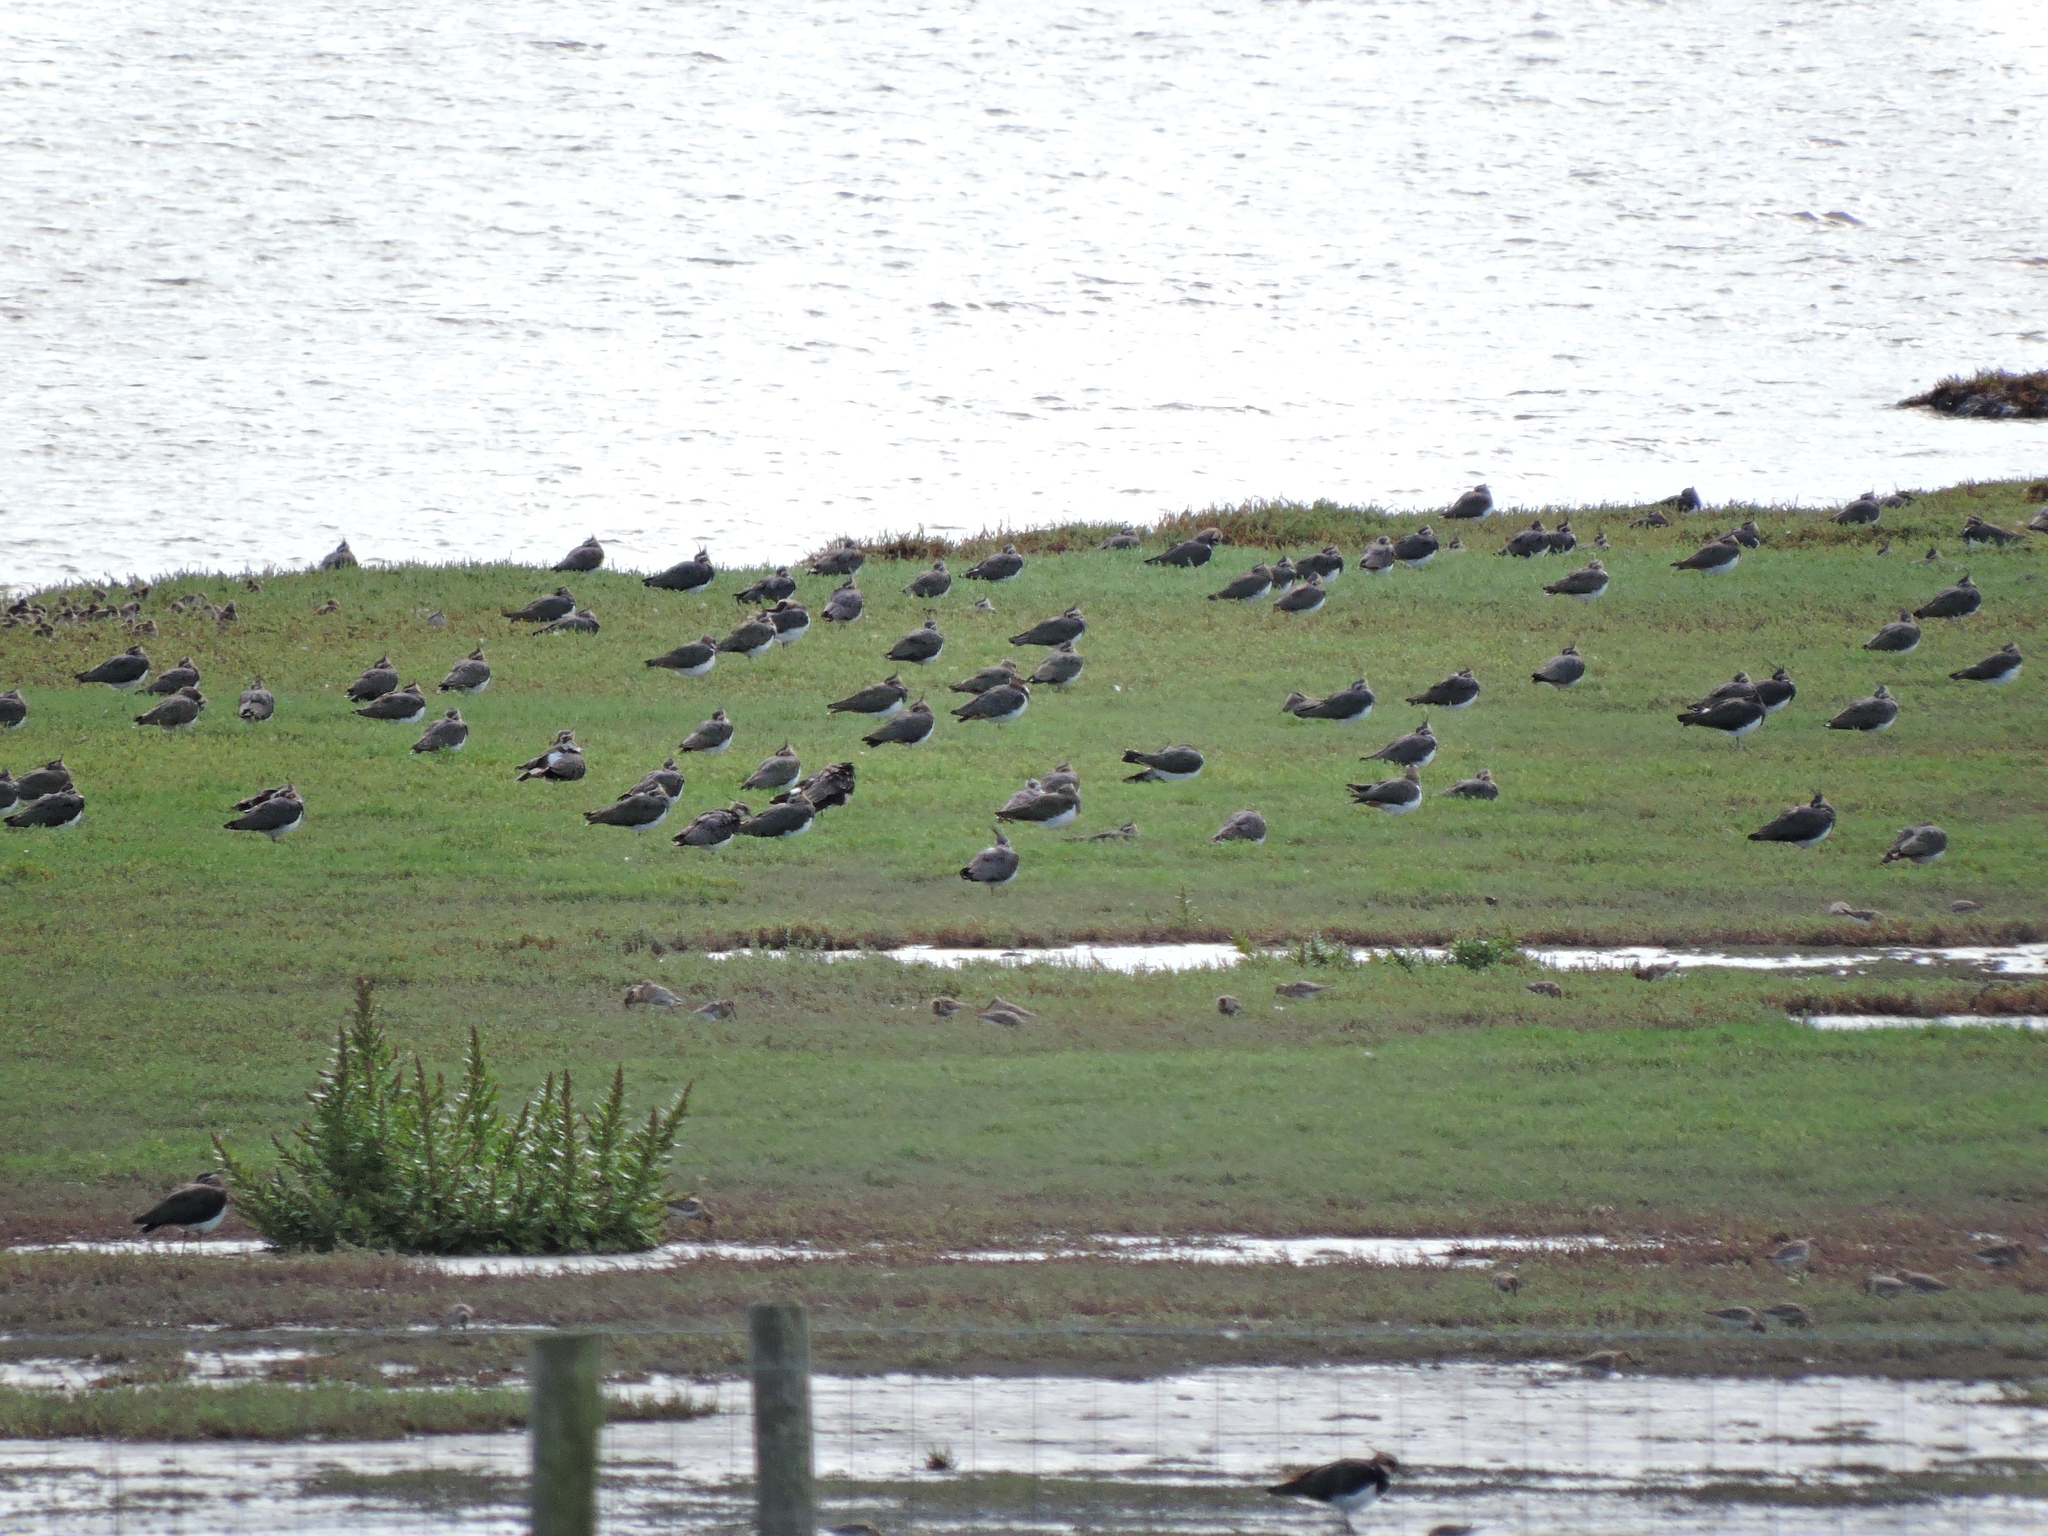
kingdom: Animalia
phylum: Chordata
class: Aves
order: Charadriiformes
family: Charadriidae
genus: Vanellus
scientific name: Vanellus vanellus
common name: Northern lapwing
